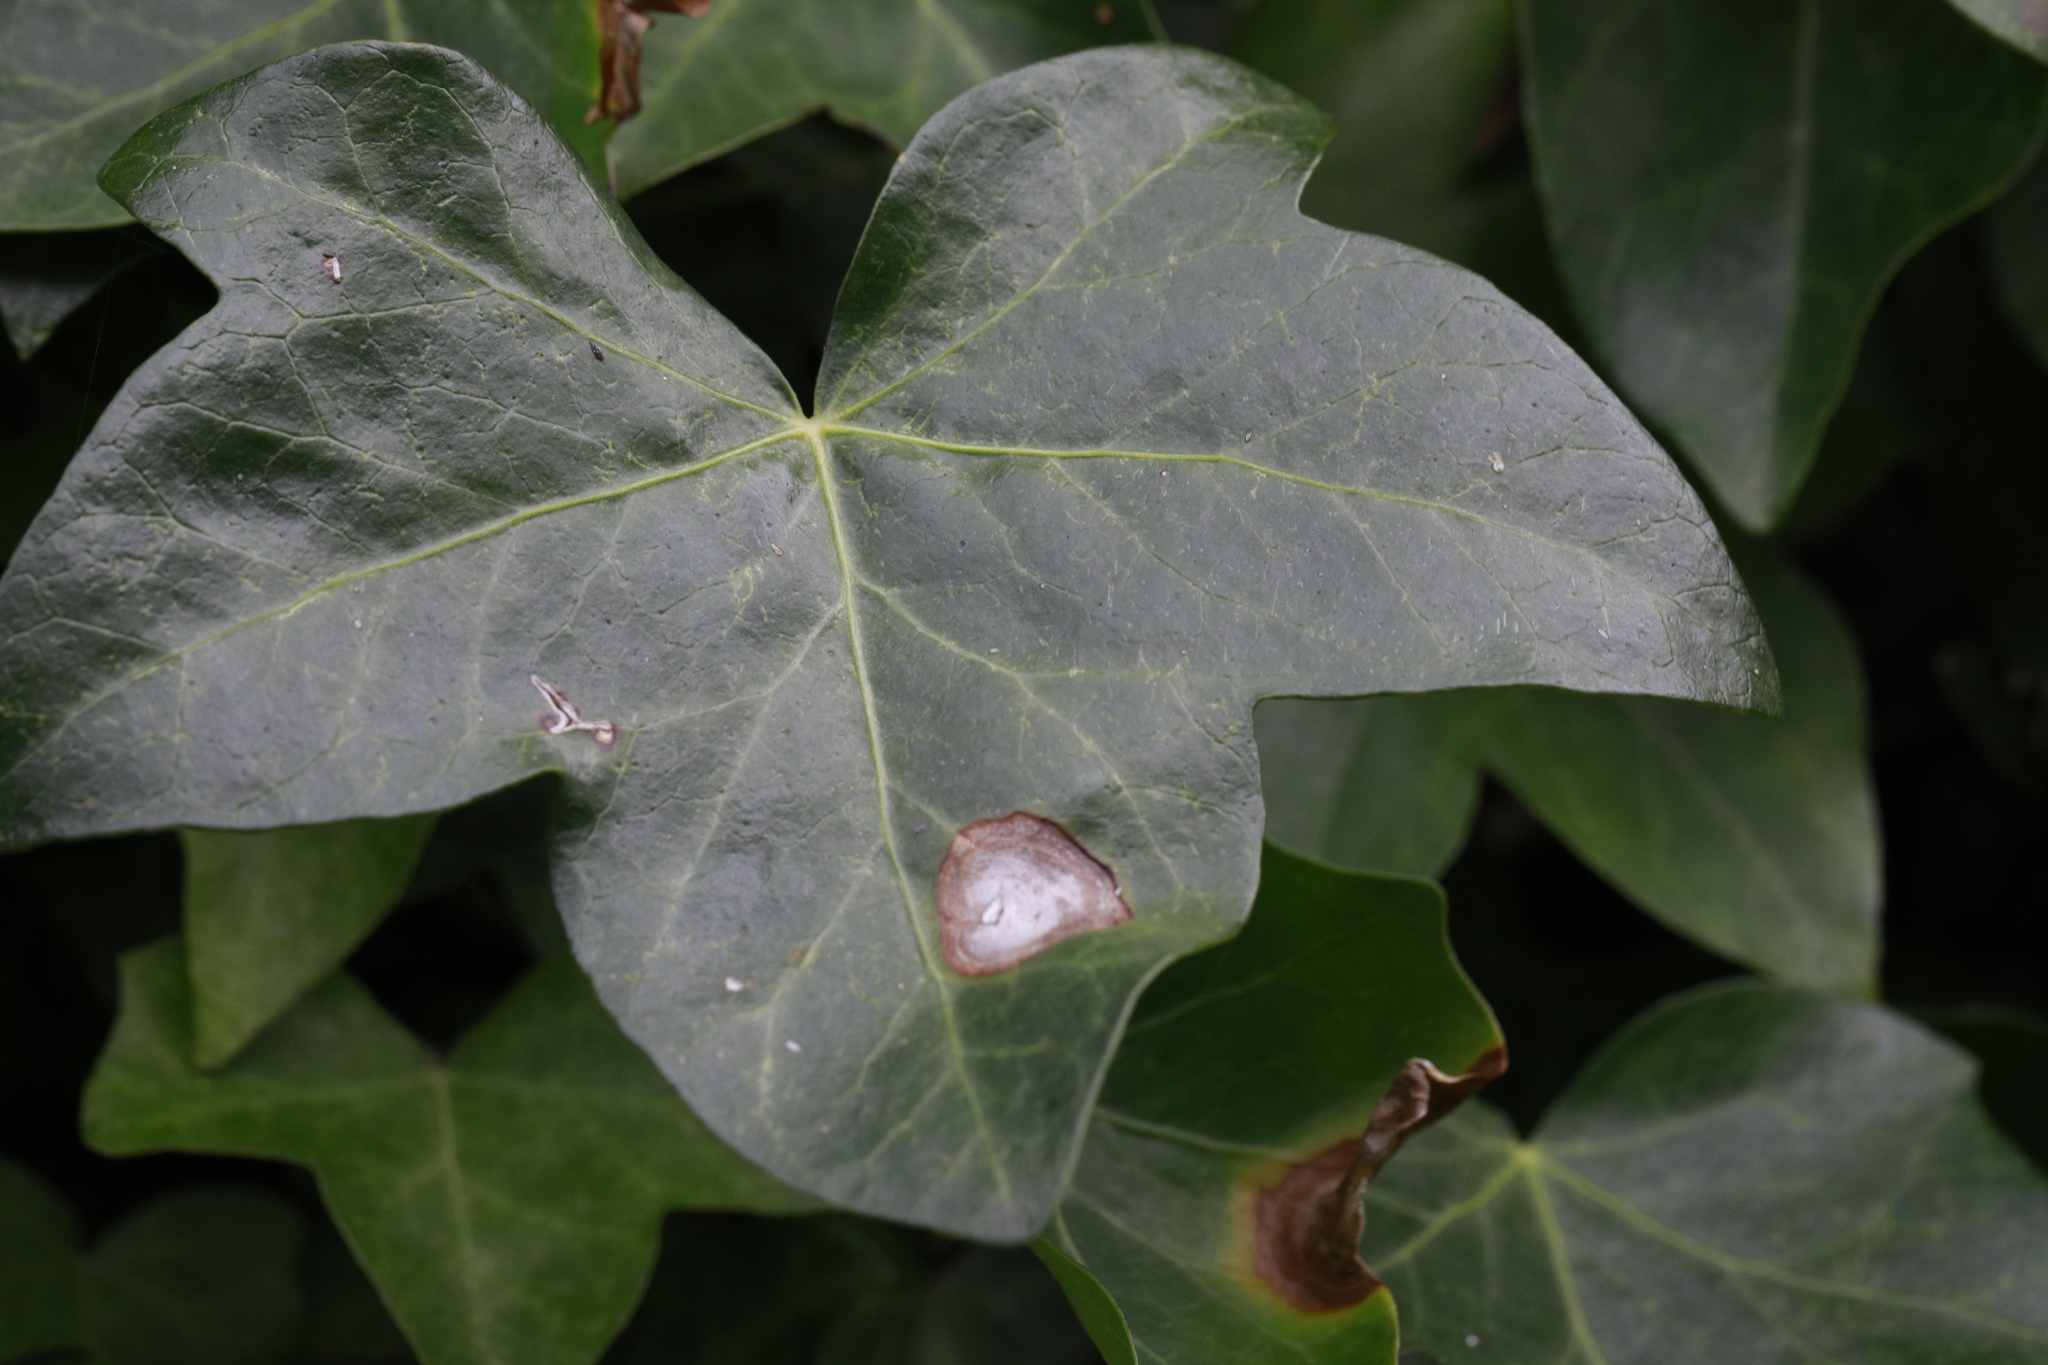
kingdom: Fungi
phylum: Ascomycota
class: Dothideomycetes
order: Pleosporales
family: Didymellaceae
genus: Boeremia
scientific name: Boeremia hedericola
